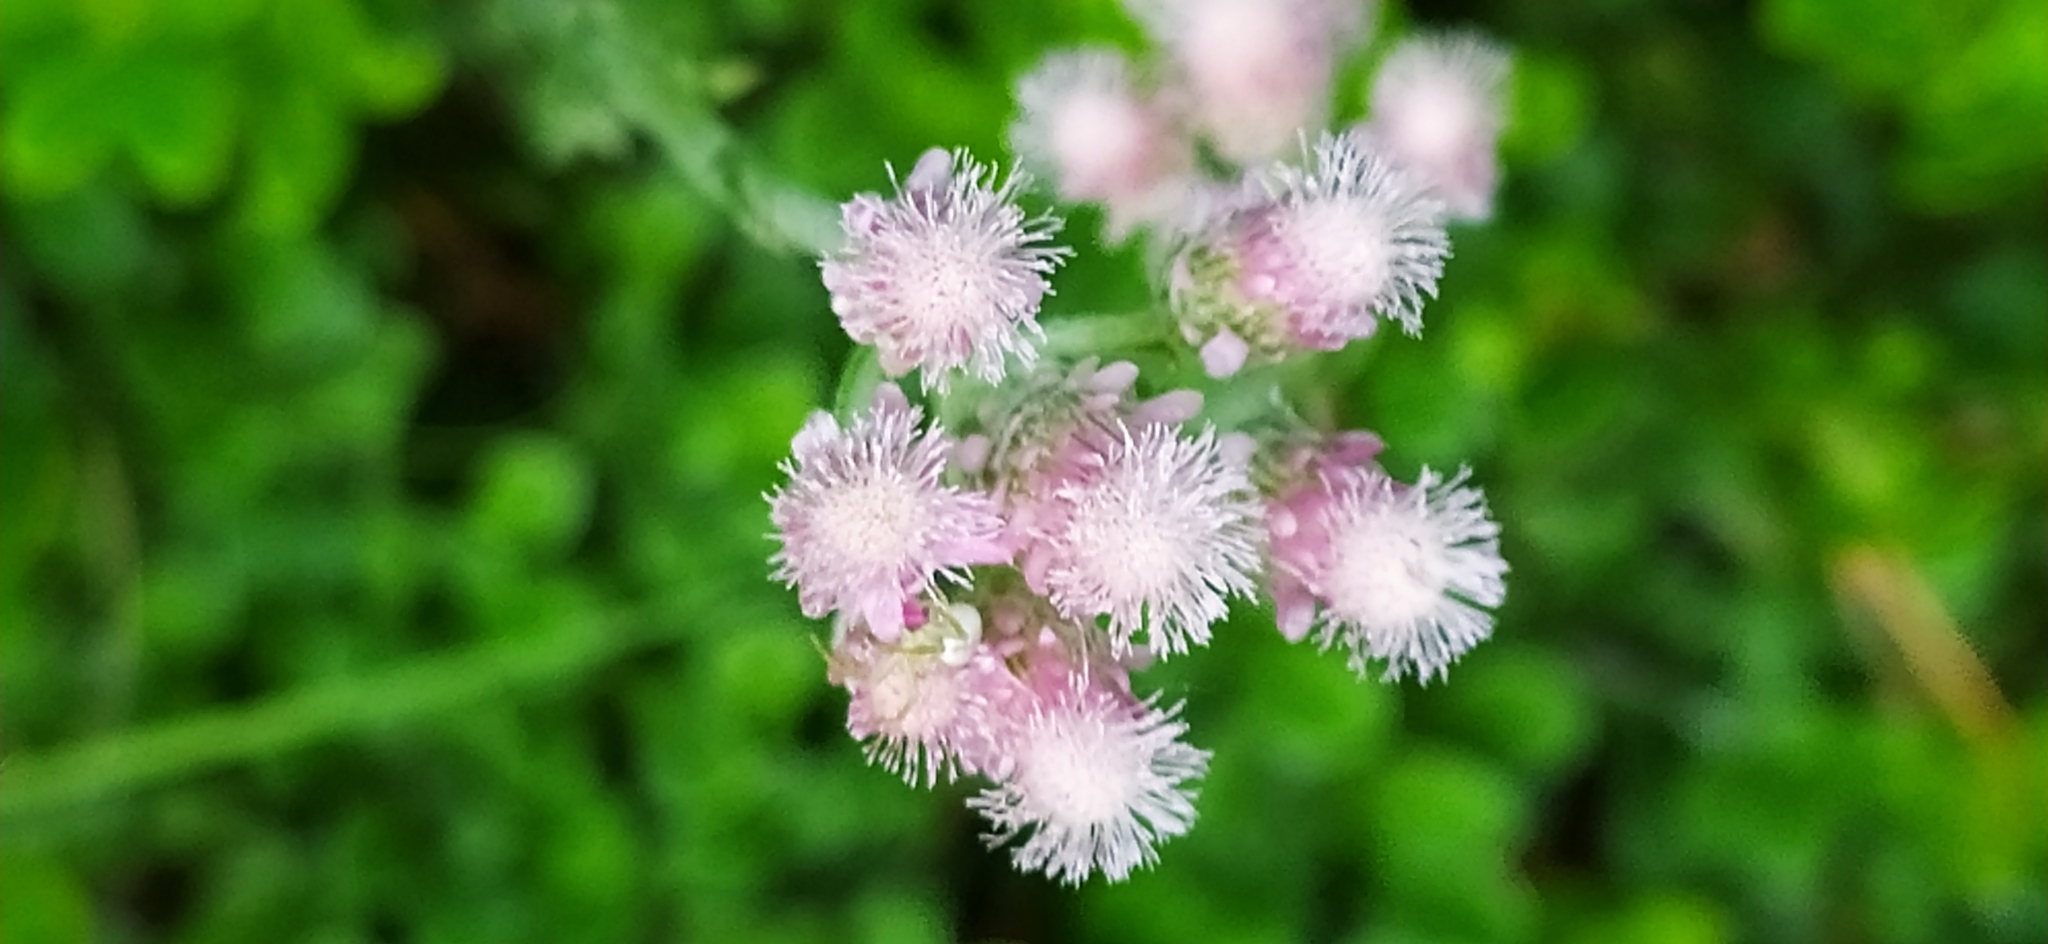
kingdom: Plantae
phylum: Tracheophyta
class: Magnoliopsida
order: Asterales
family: Asteraceae
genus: Antennaria
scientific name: Antennaria dioica
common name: Mountain everlasting
